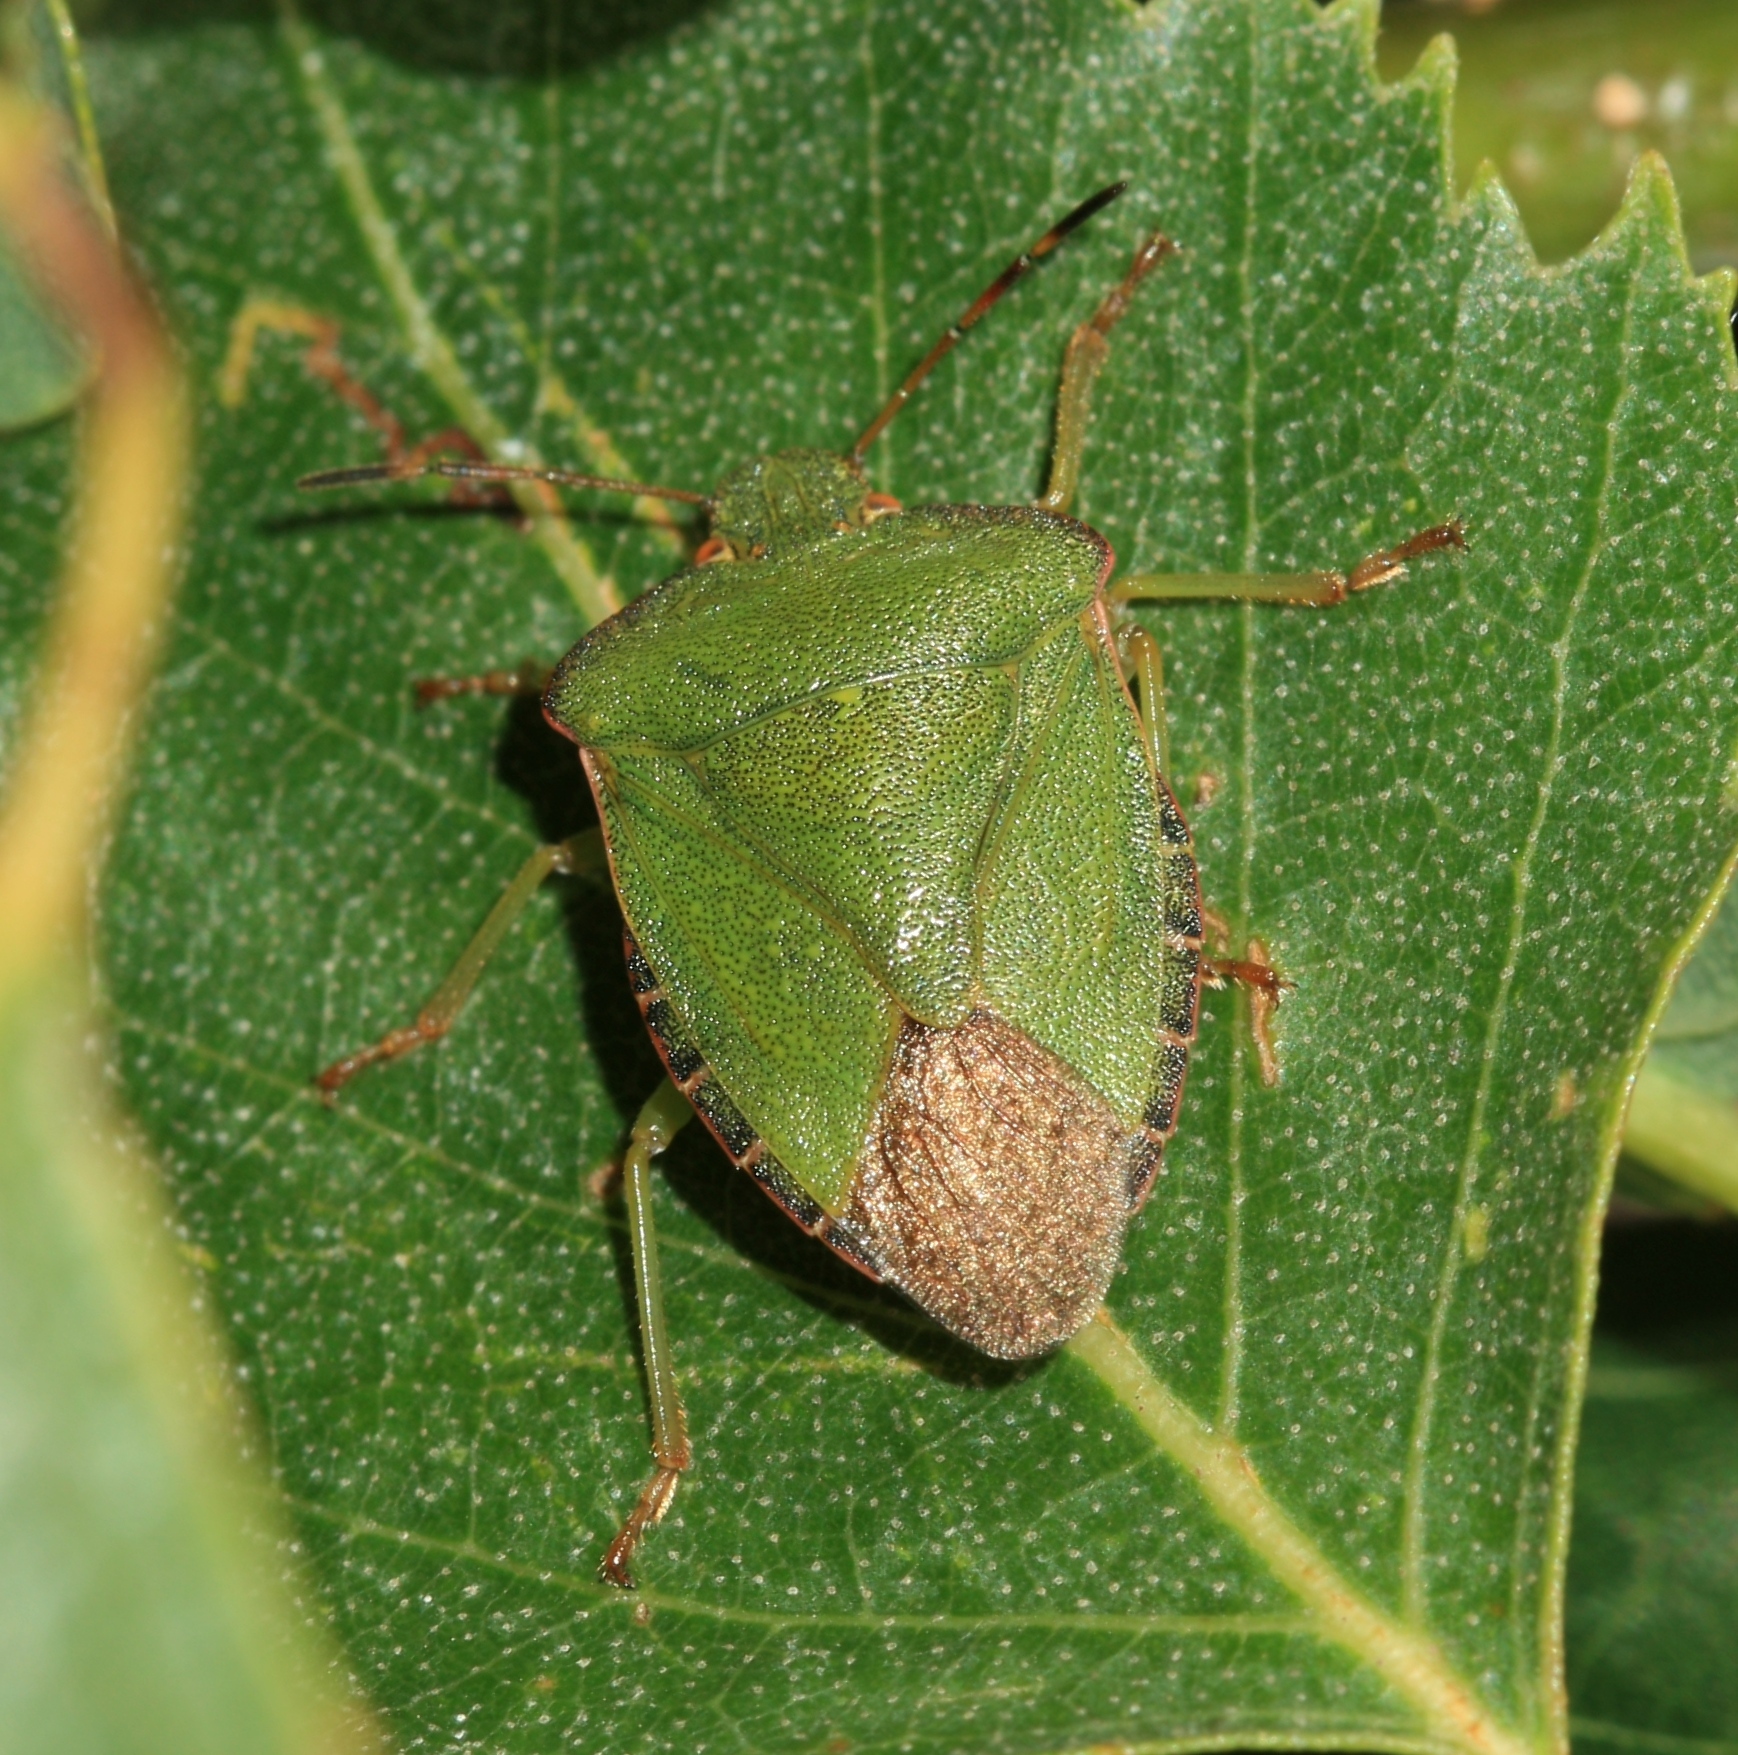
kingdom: Animalia
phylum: Arthropoda
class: Insecta
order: Hemiptera
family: Pentatomidae
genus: Palomena
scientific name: Palomena prasina
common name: Green shieldbug
